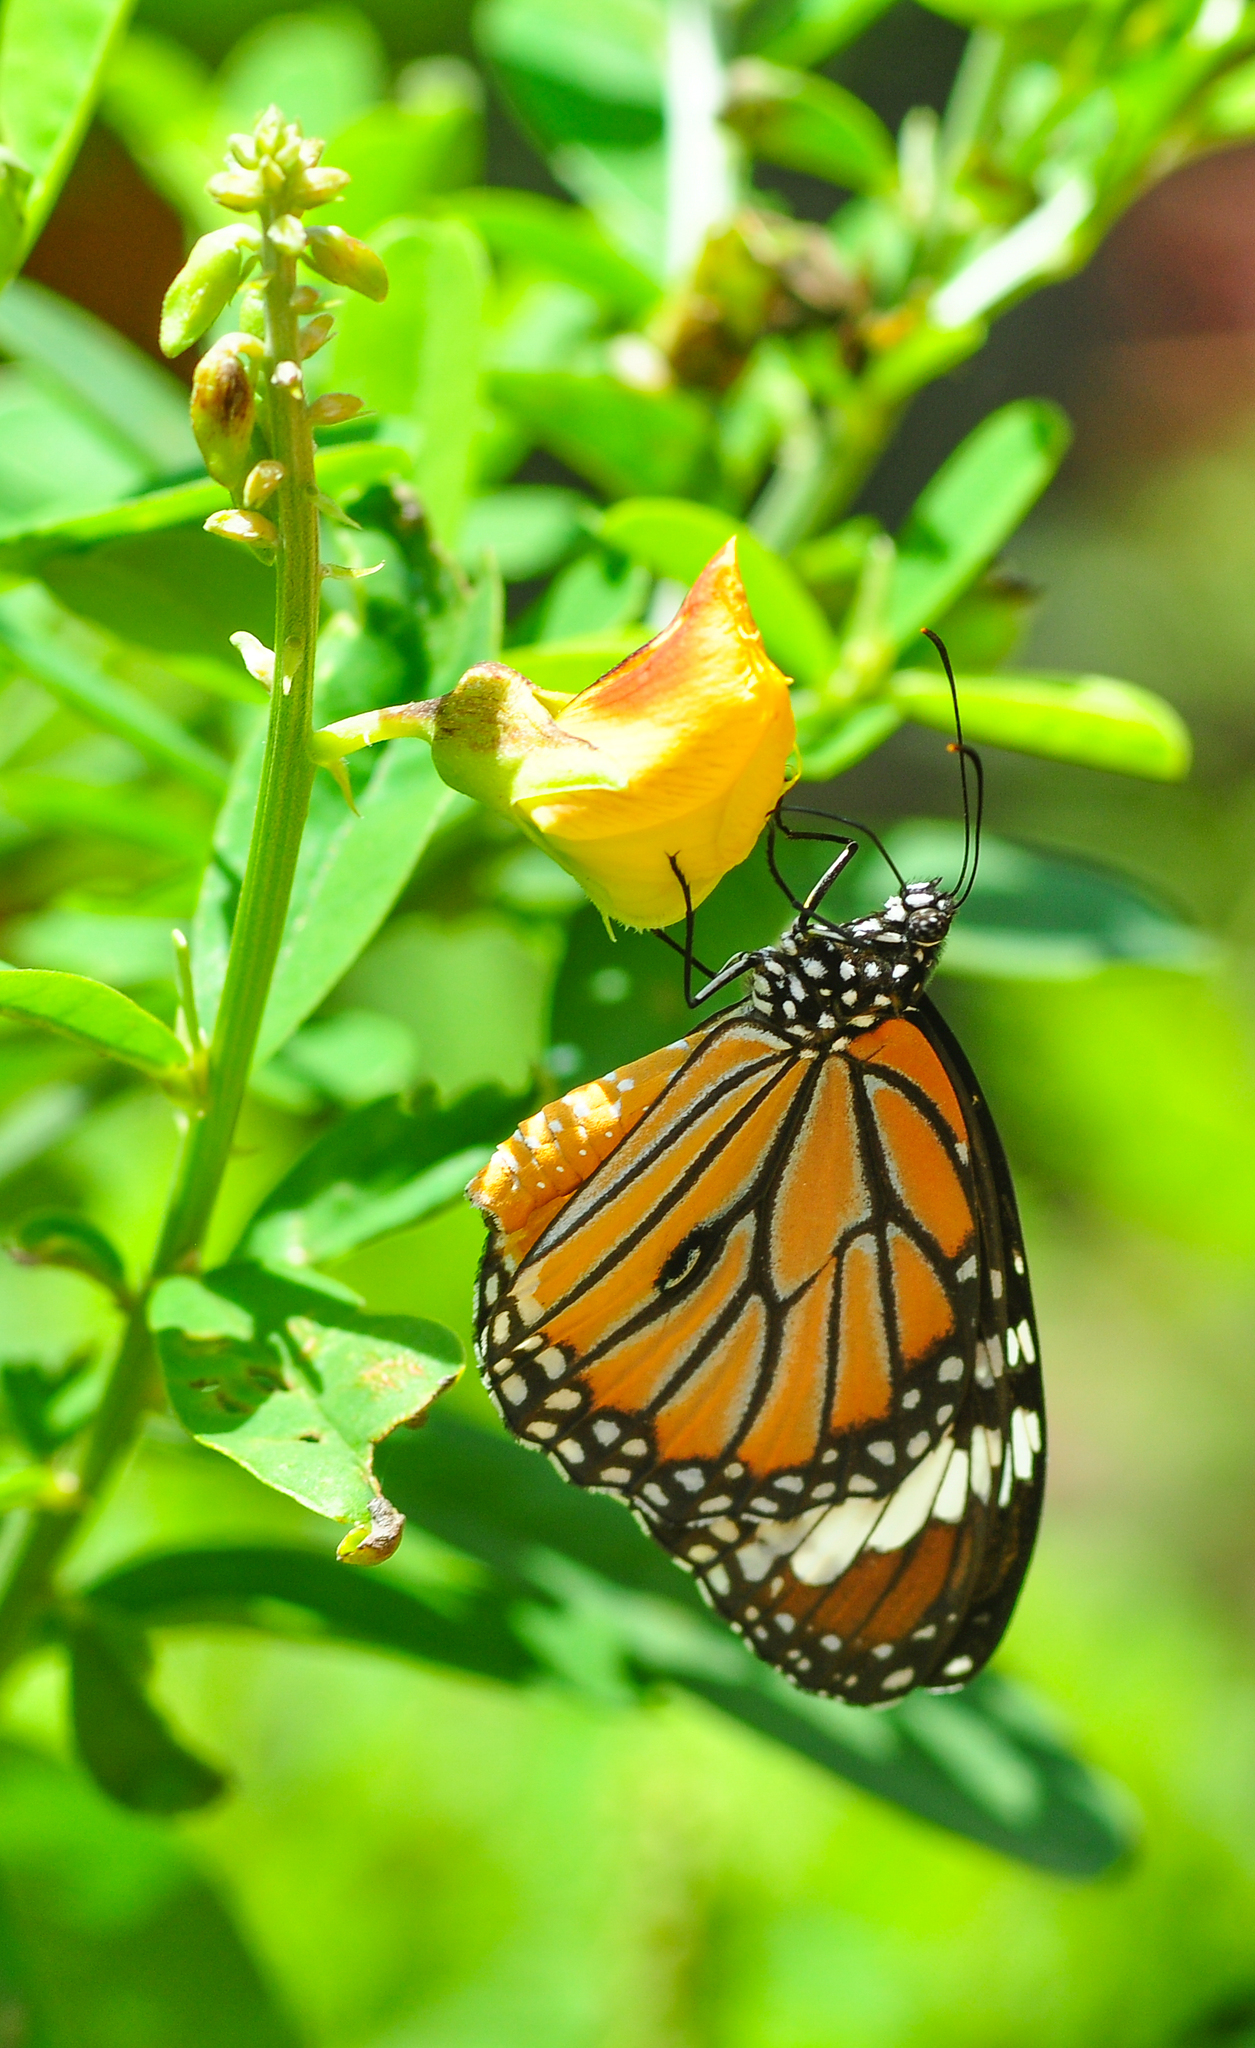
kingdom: Animalia
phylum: Arthropoda
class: Insecta
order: Lepidoptera
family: Nymphalidae
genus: Danaus
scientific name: Danaus genutia
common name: Common tiger butterfly
